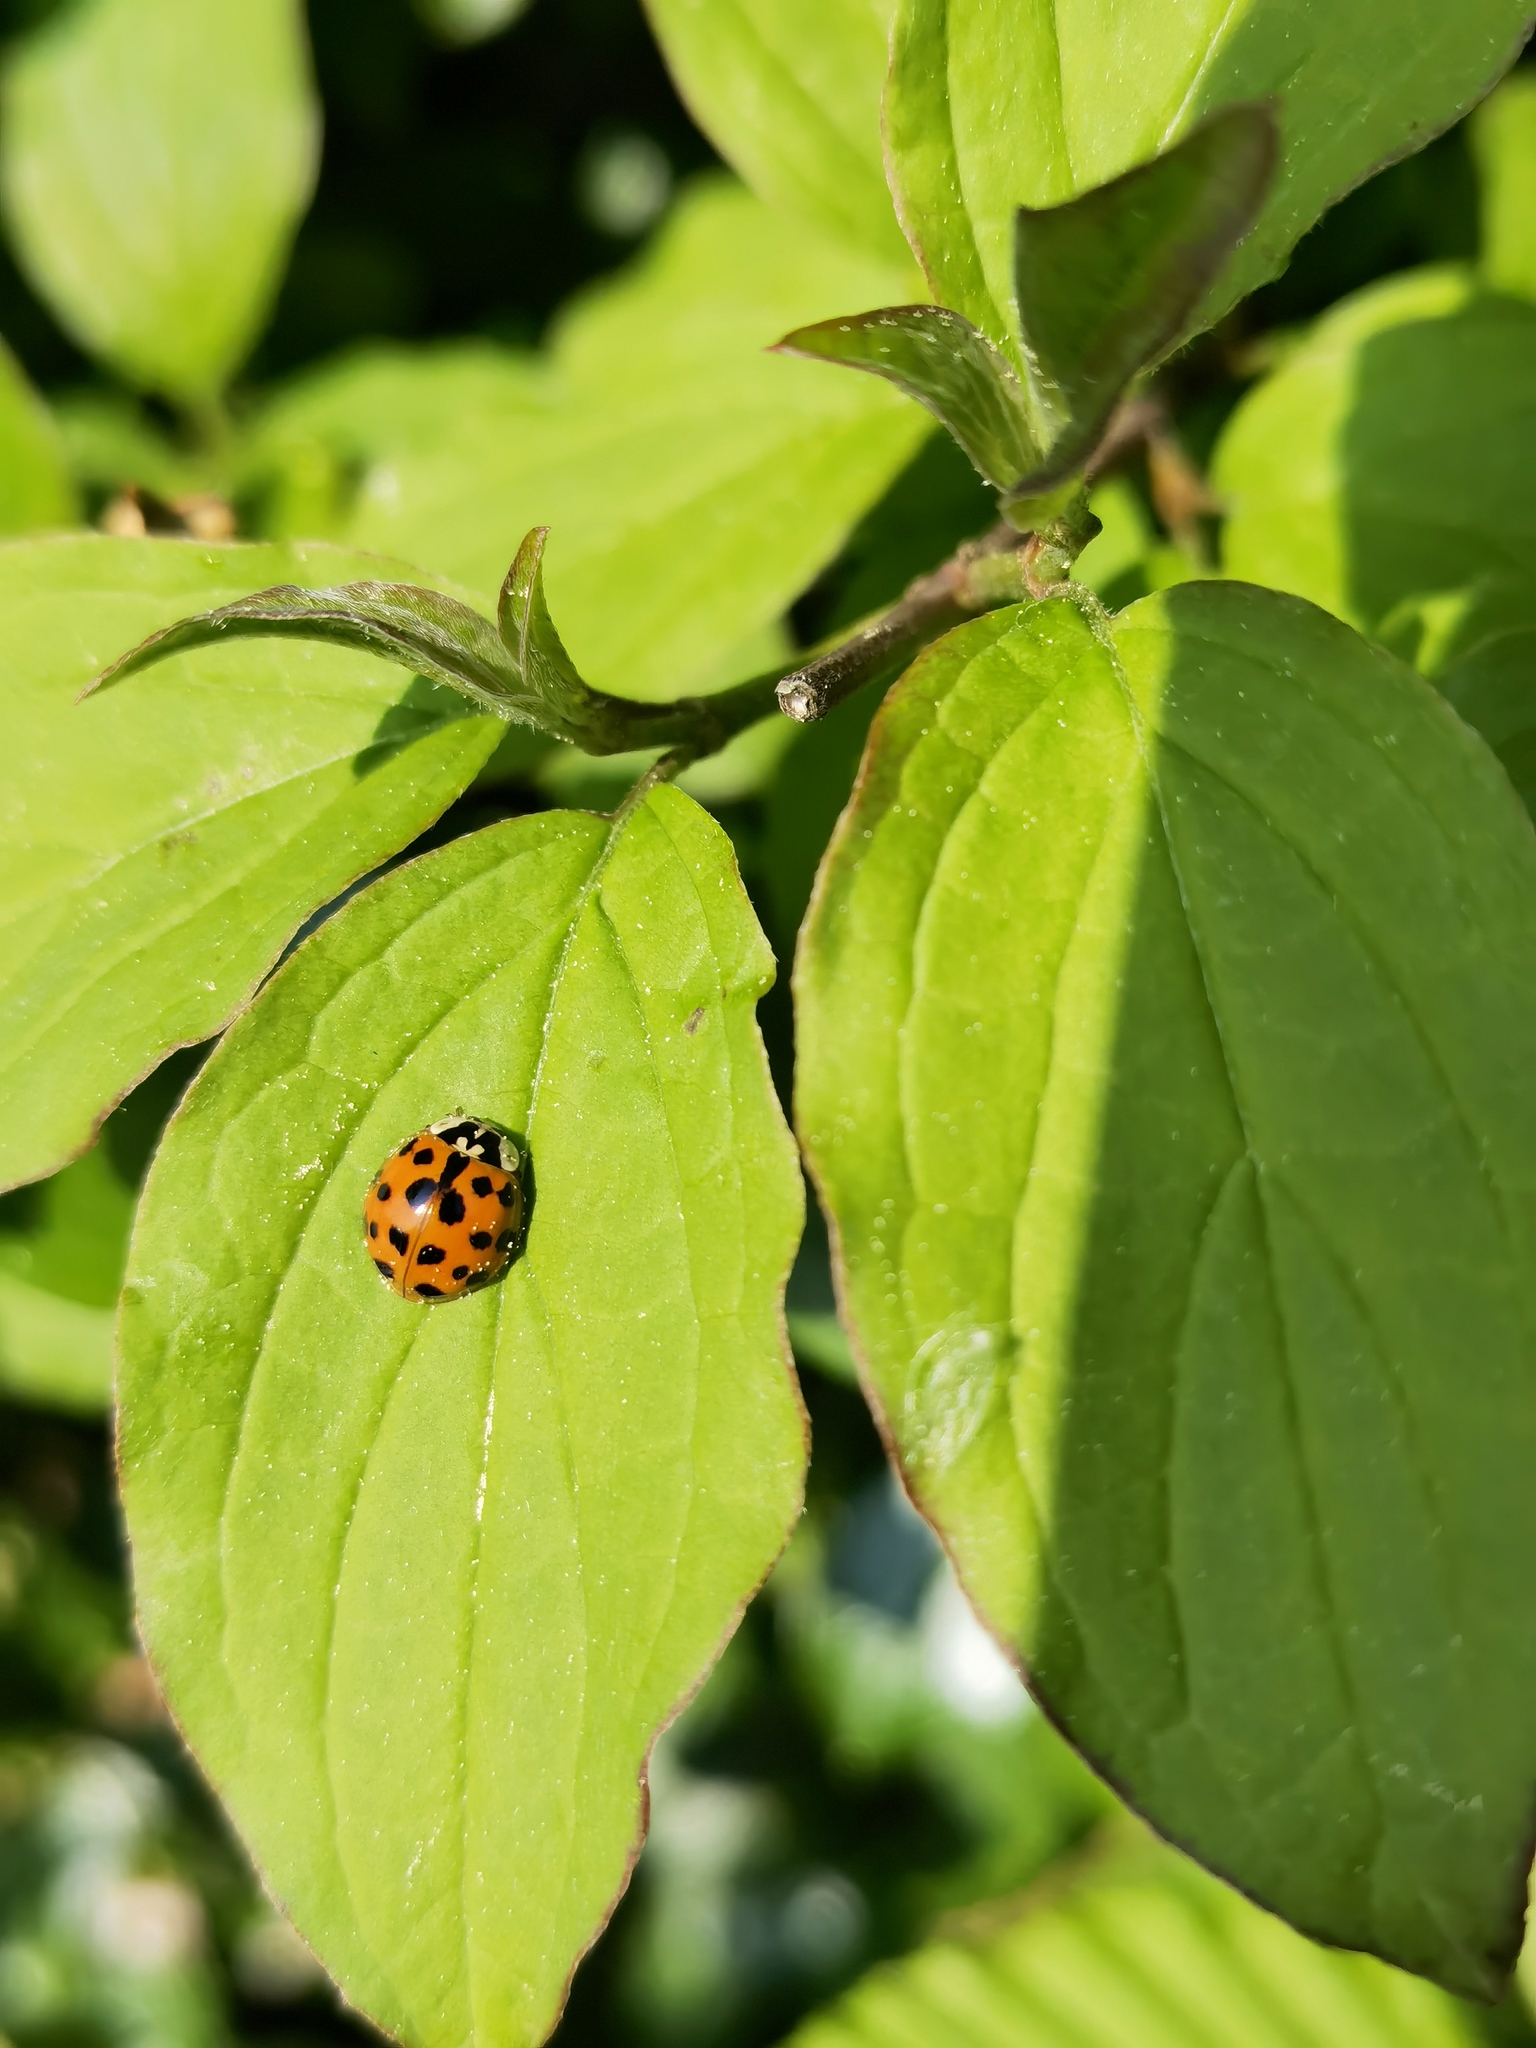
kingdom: Animalia
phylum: Arthropoda
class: Insecta
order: Coleoptera
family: Coccinellidae
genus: Harmonia
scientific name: Harmonia axyridis
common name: Harlequin ladybird
